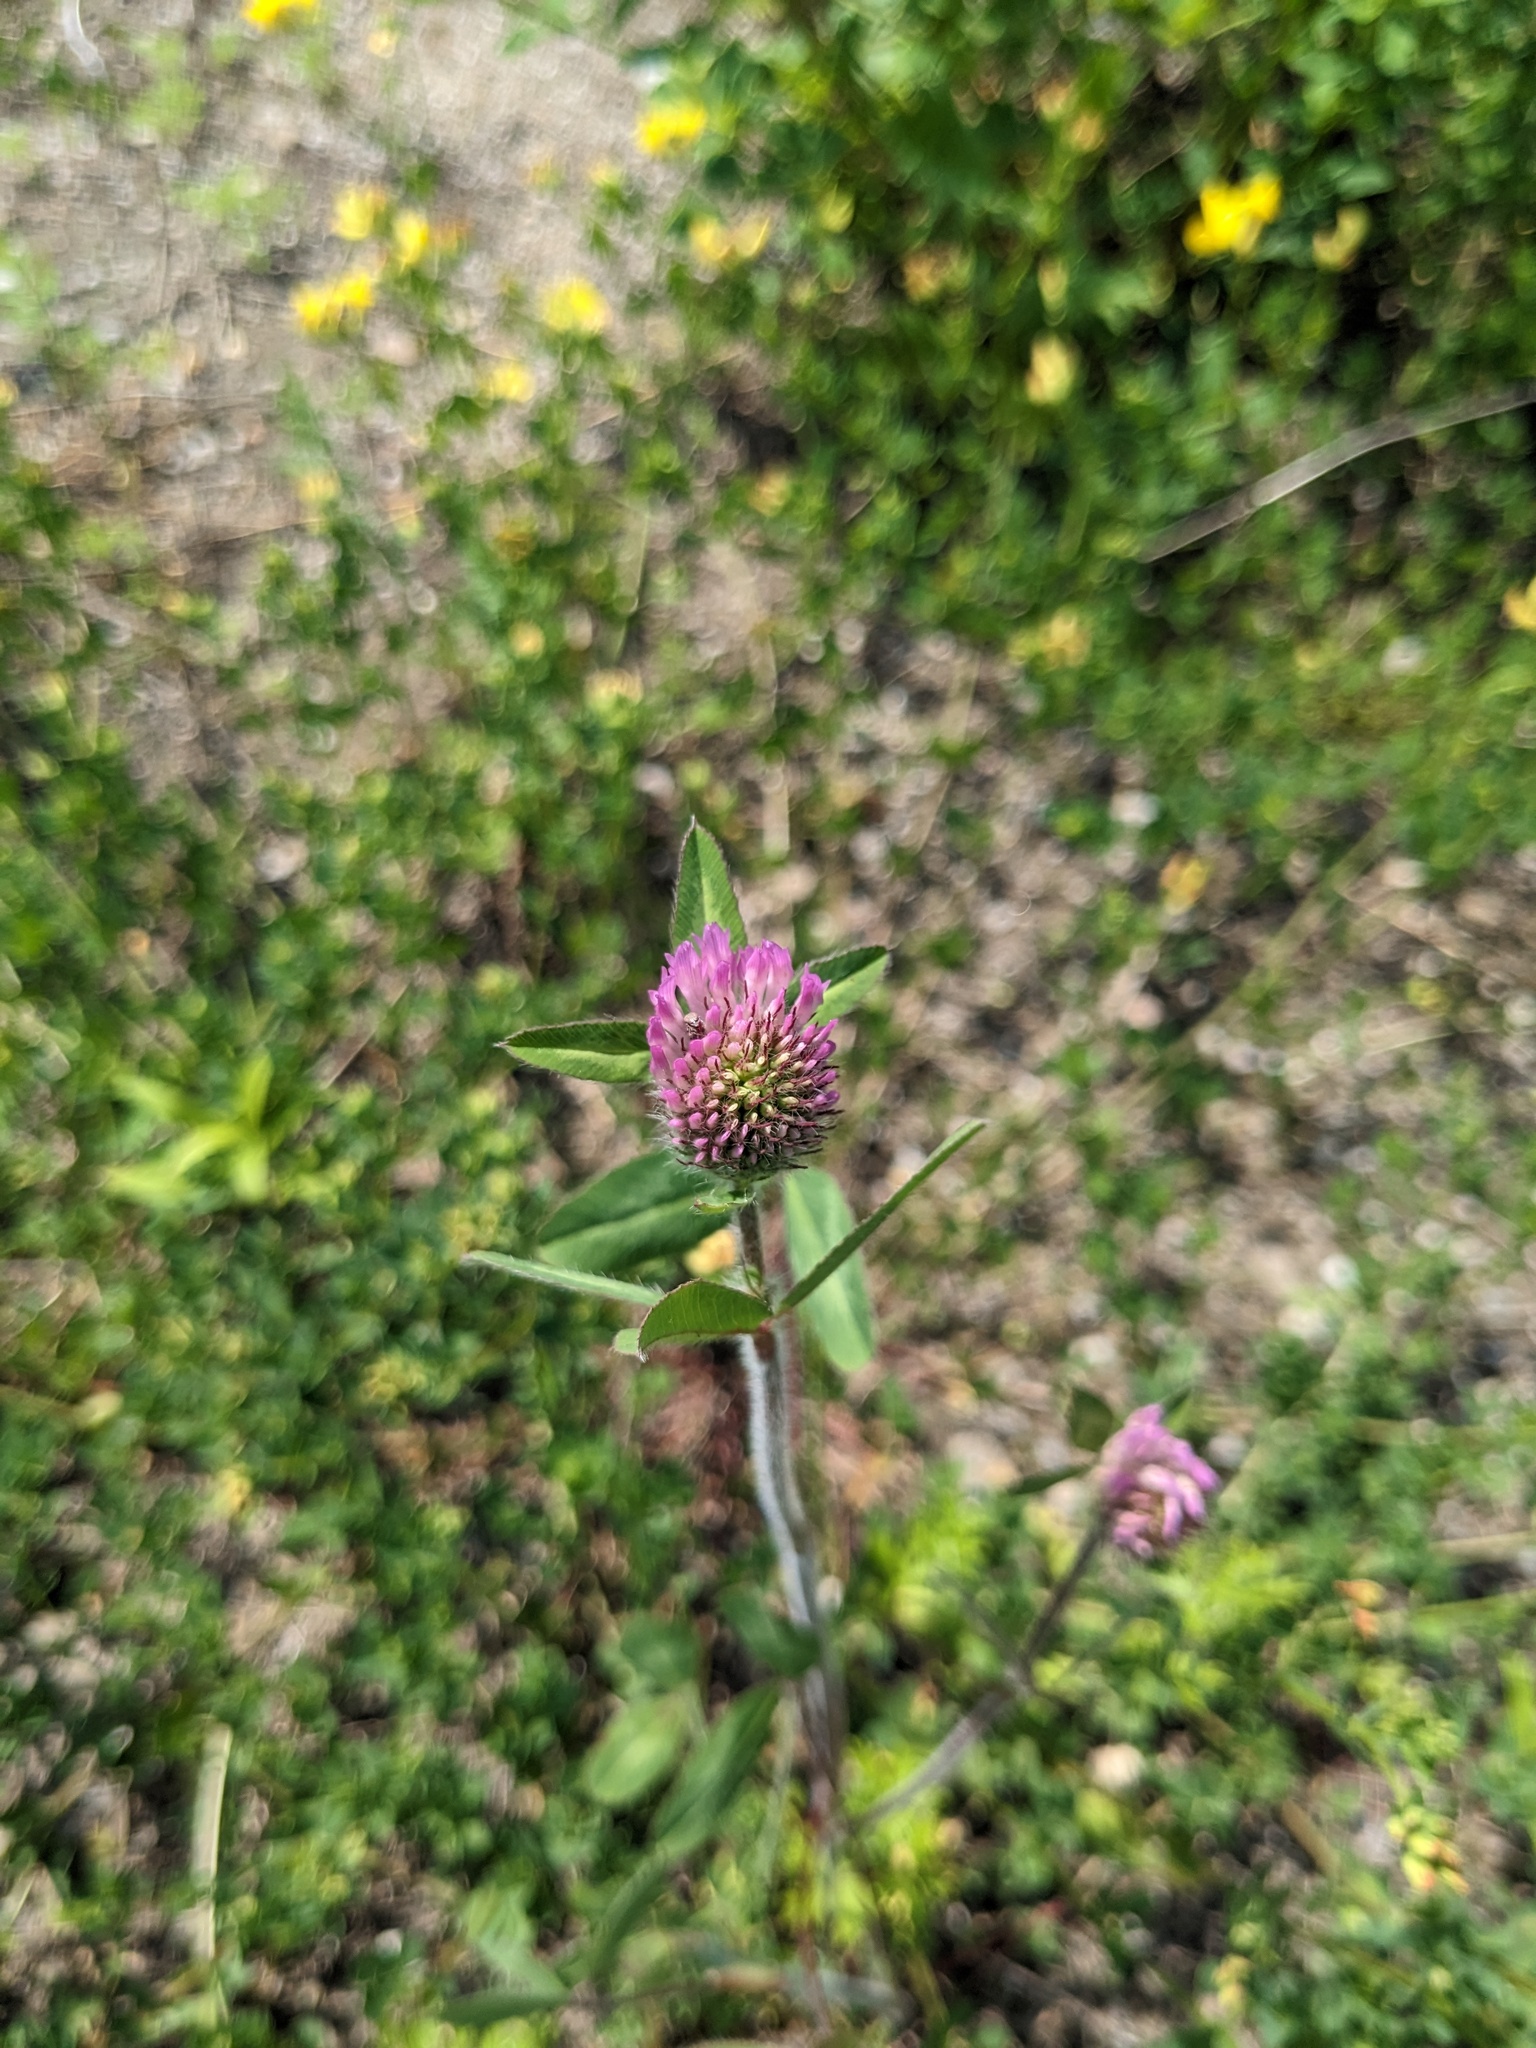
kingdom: Plantae
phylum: Tracheophyta
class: Magnoliopsida
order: Fabales
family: Fabaceae
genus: Trifolium
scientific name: Trifolium pratense
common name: Red clover
